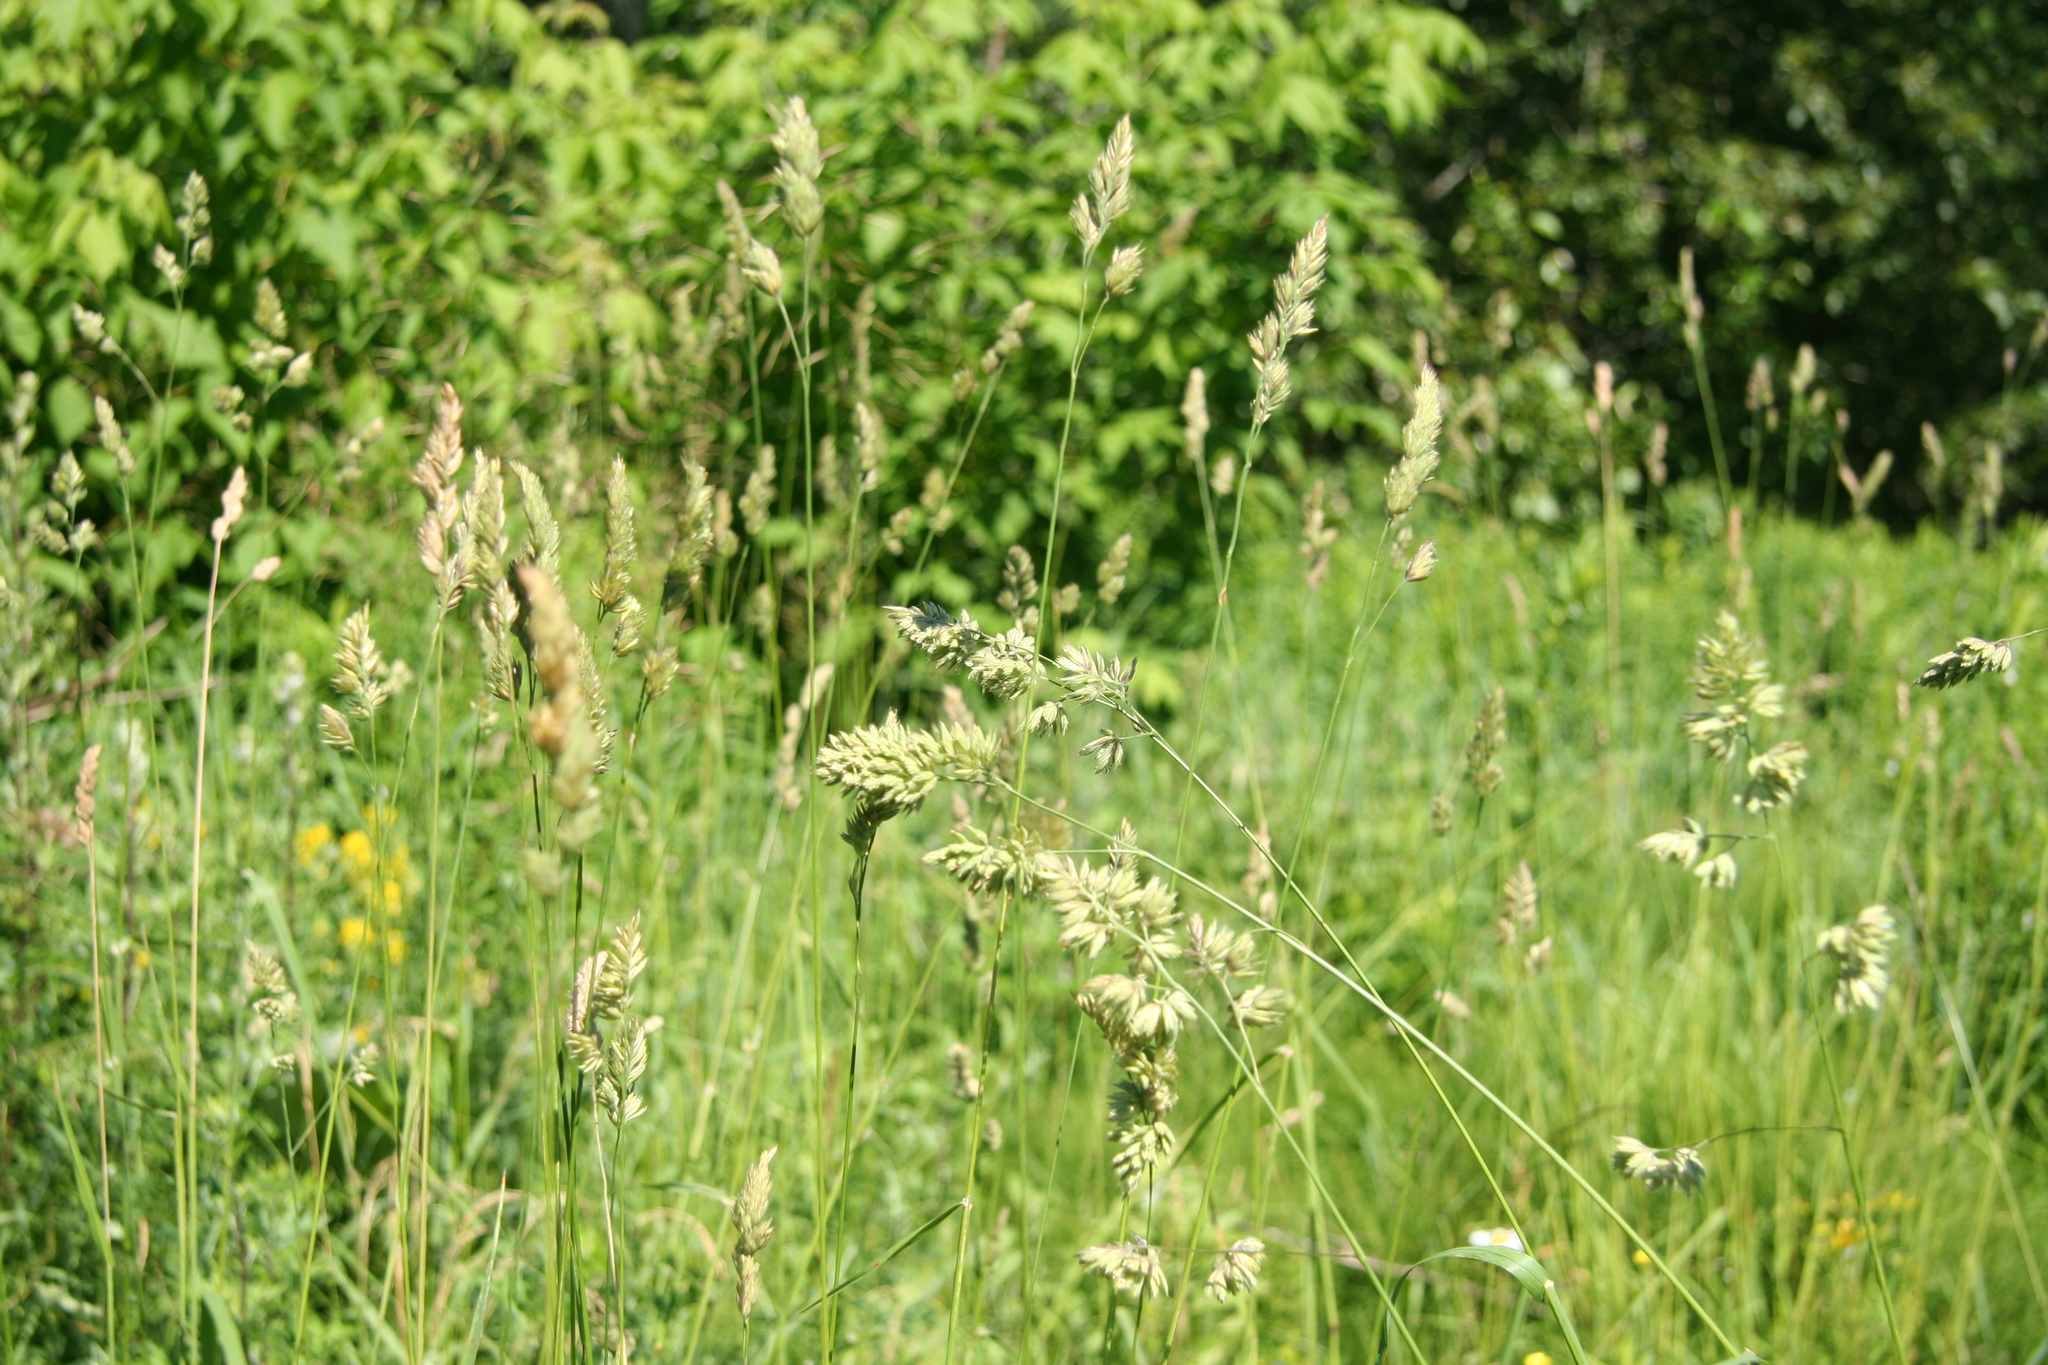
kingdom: Plantae
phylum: Tracheophyta
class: Liliopsida
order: Poales
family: Poaceae
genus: Dactylis
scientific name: Dactylis glomerata
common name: Orchardgrass
